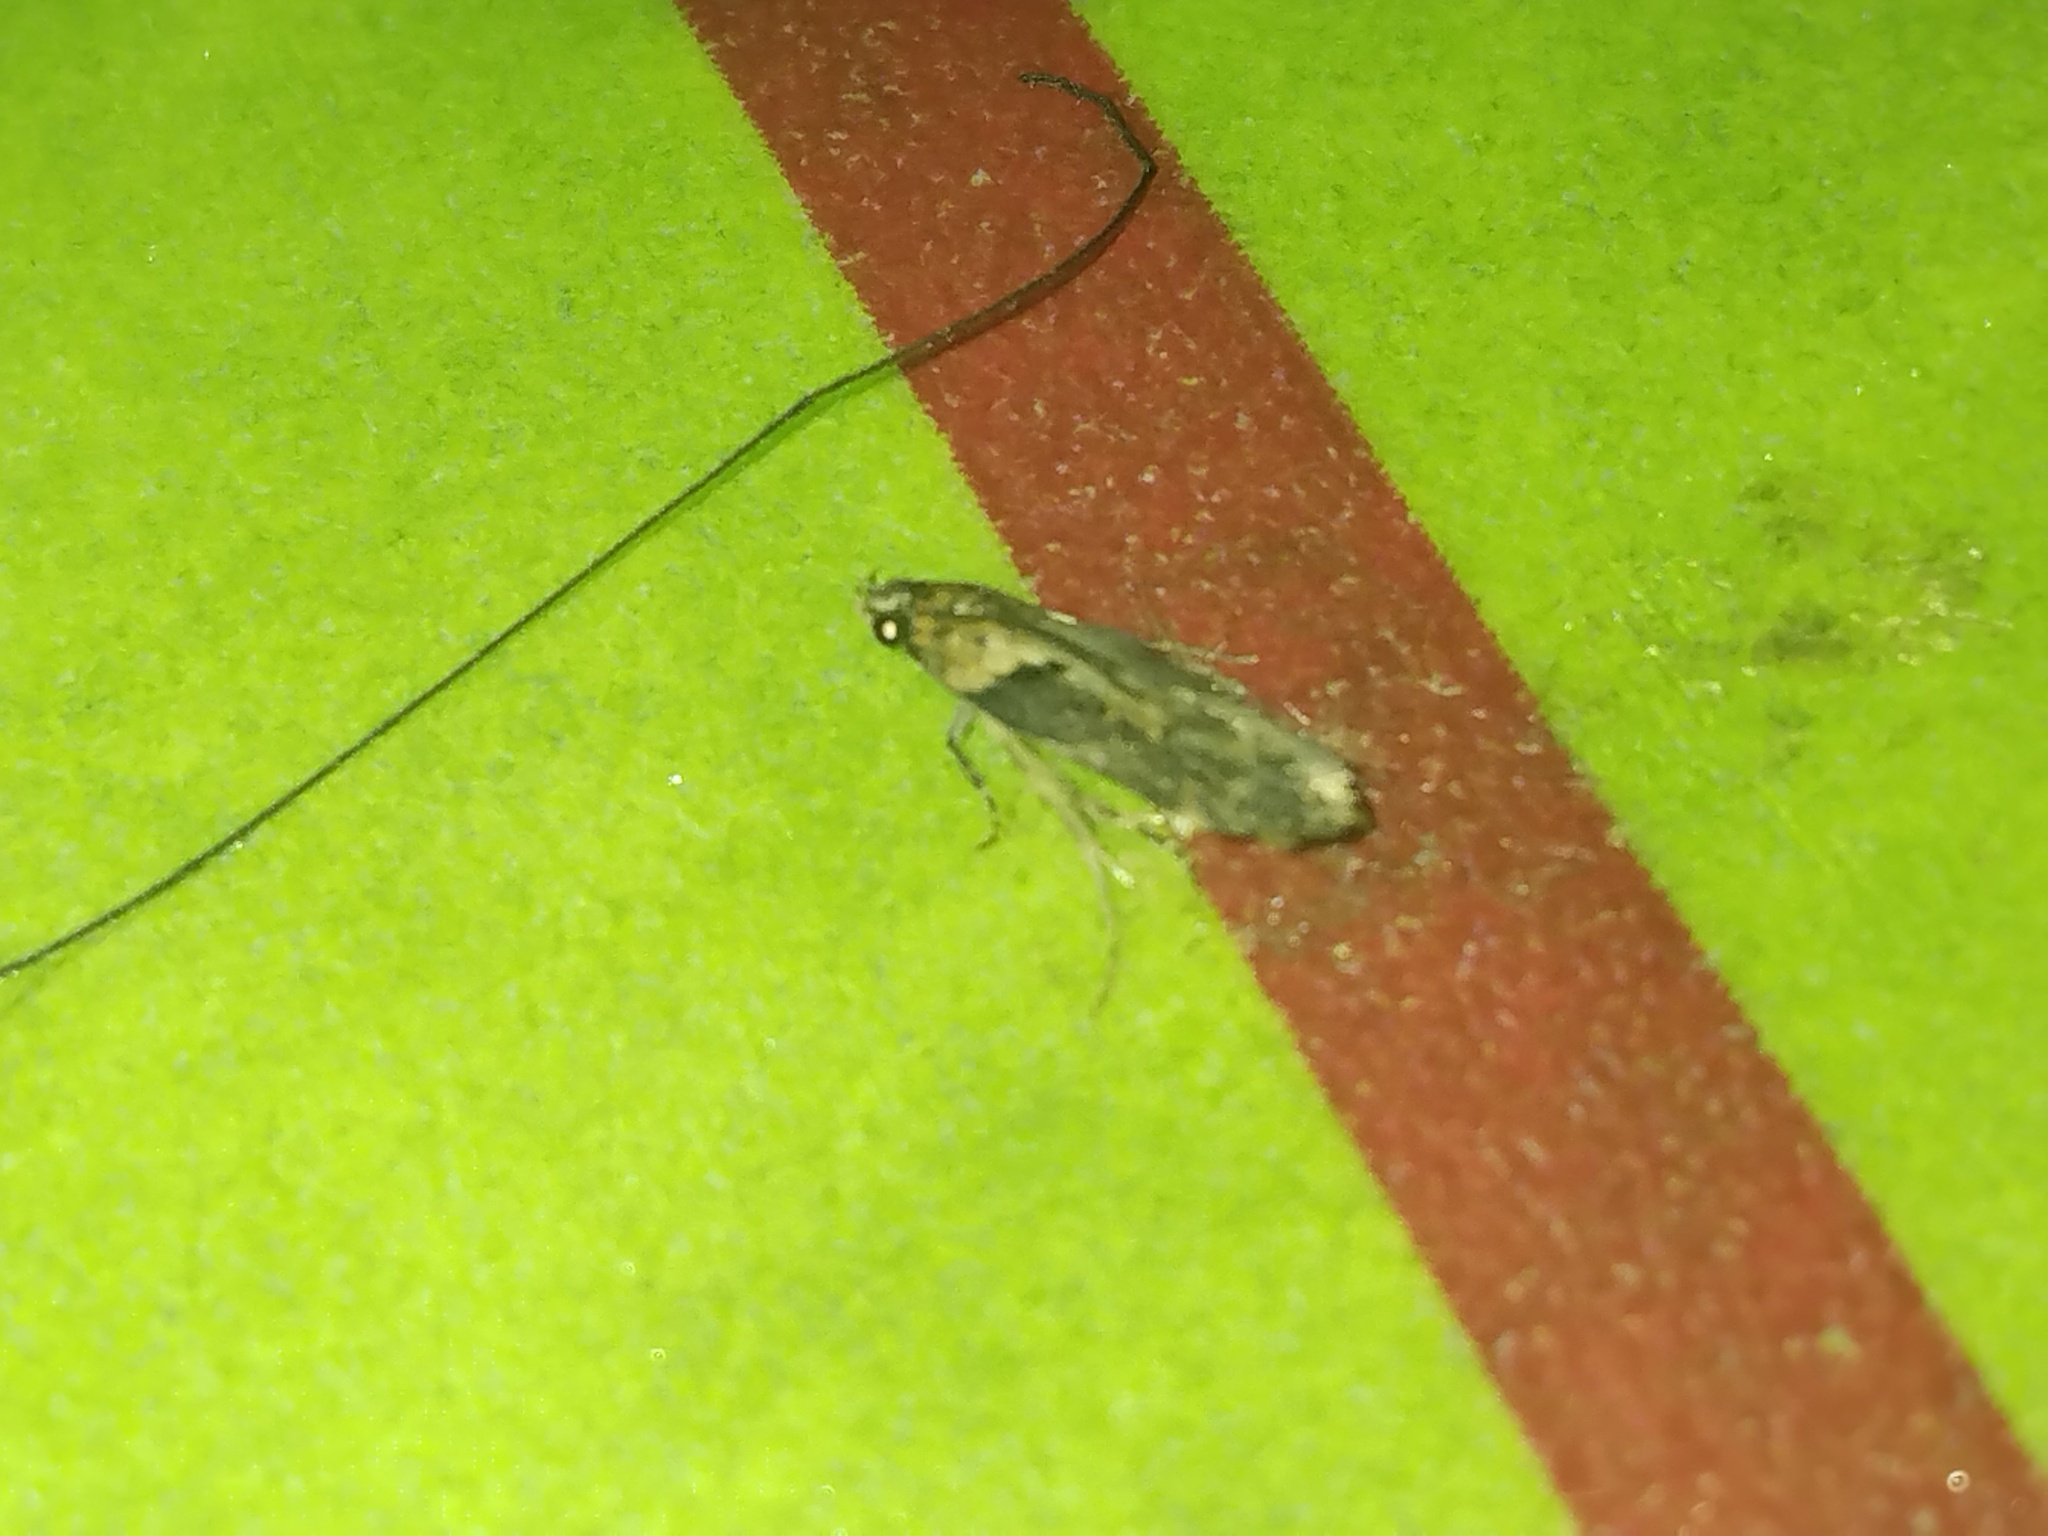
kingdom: Animalia
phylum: Arthropoda
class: Insecta
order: Lepidoptera
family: Gelechiidae
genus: Chionodes
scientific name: Chionodes mediofuscella
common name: Black-smudged chionodes moth
